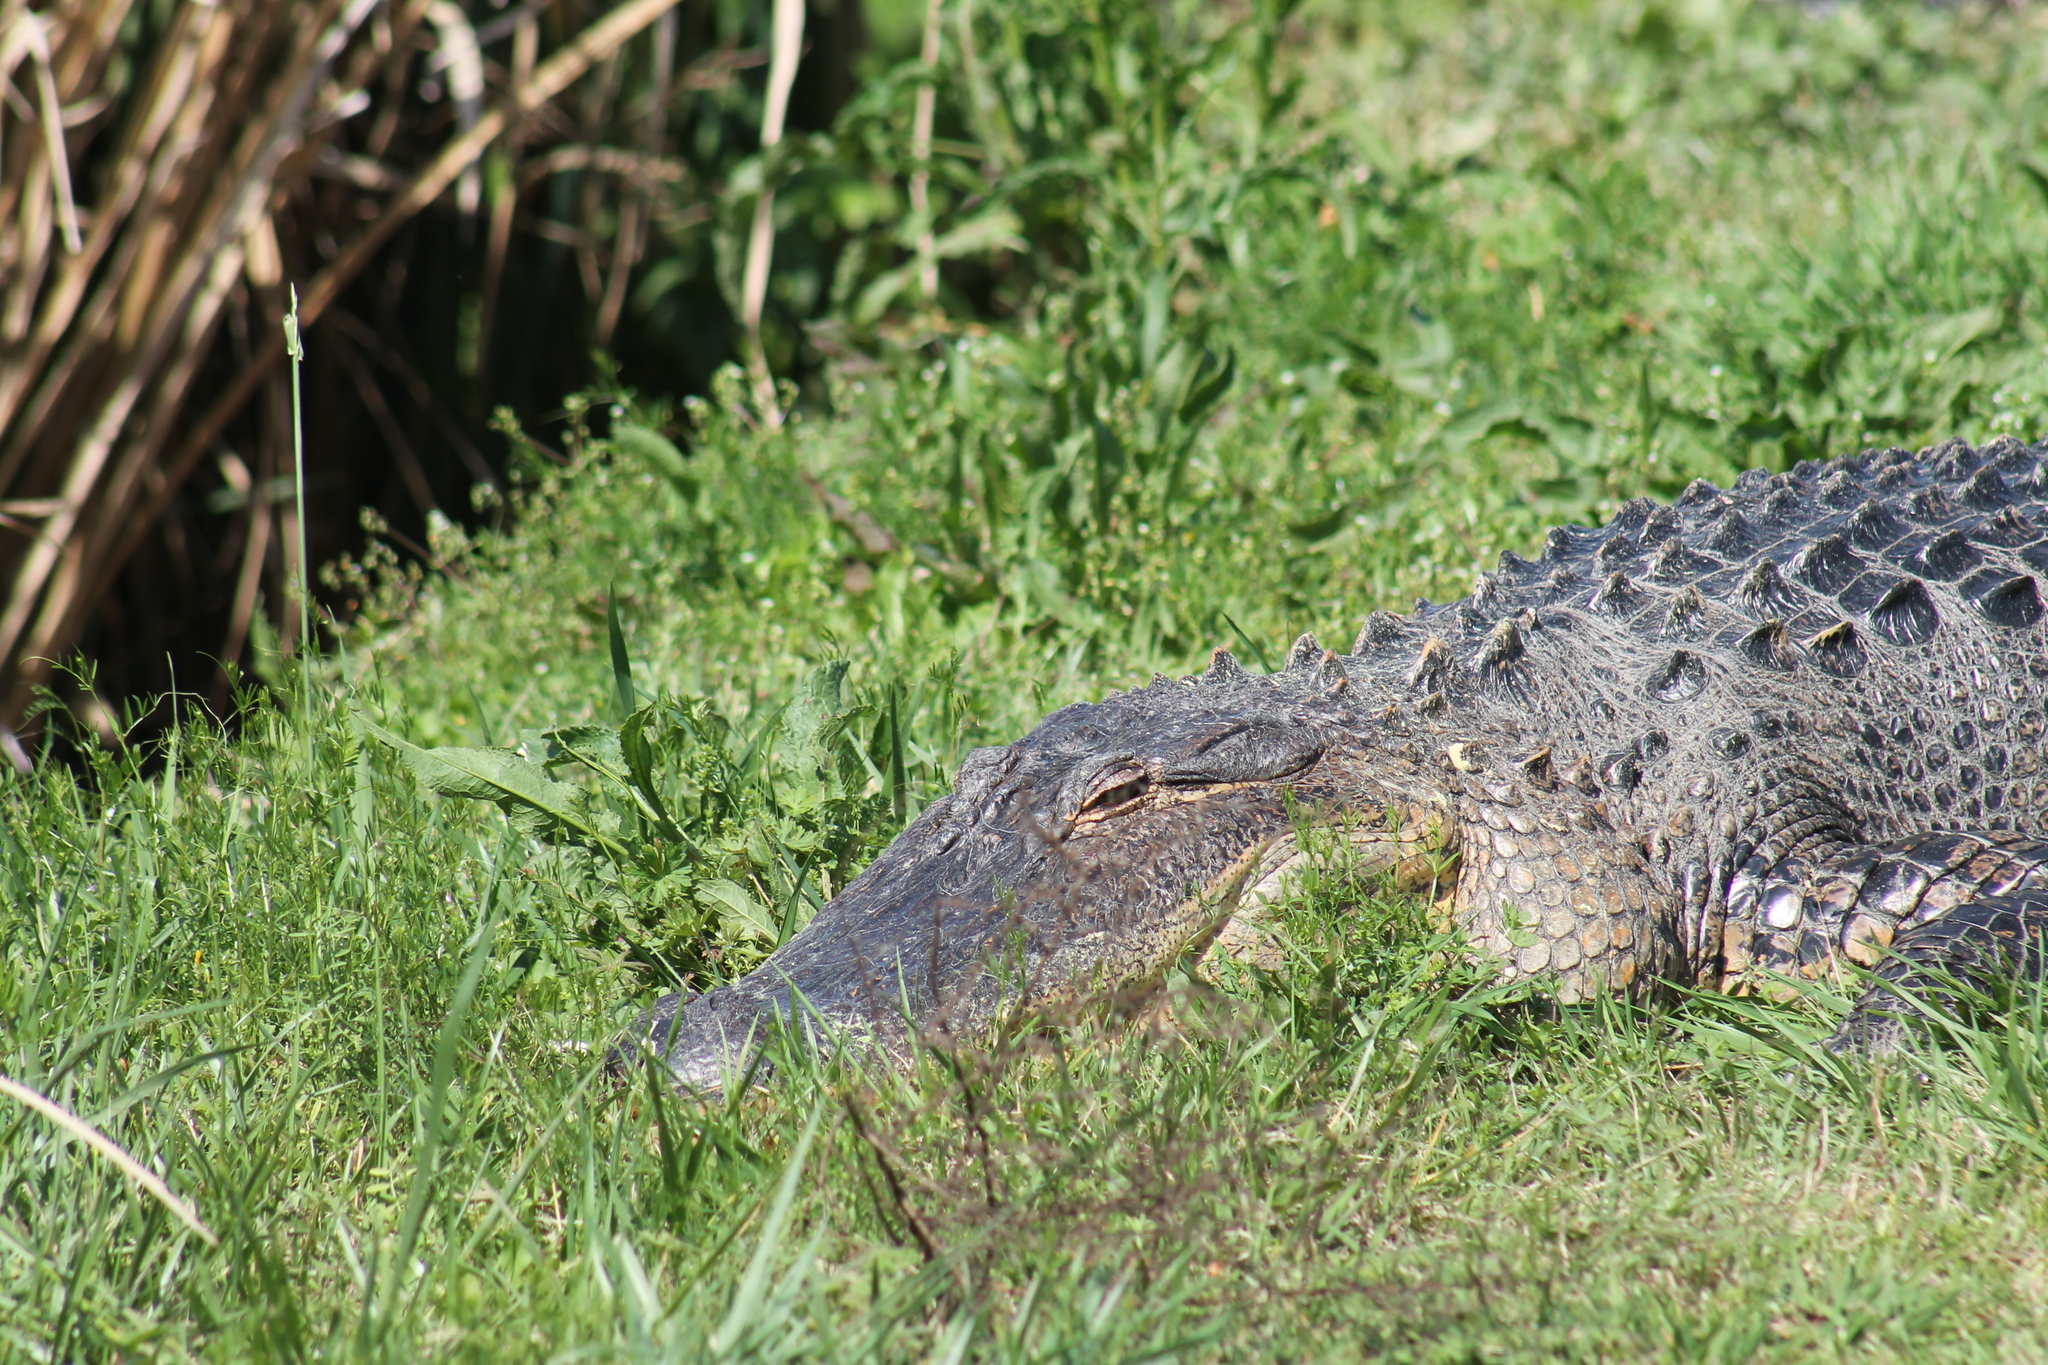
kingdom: Animalia
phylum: Chordata
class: Crocodylia
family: Alligatoridae
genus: Alligator
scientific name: Alligator mississippiensis
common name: American alligator
